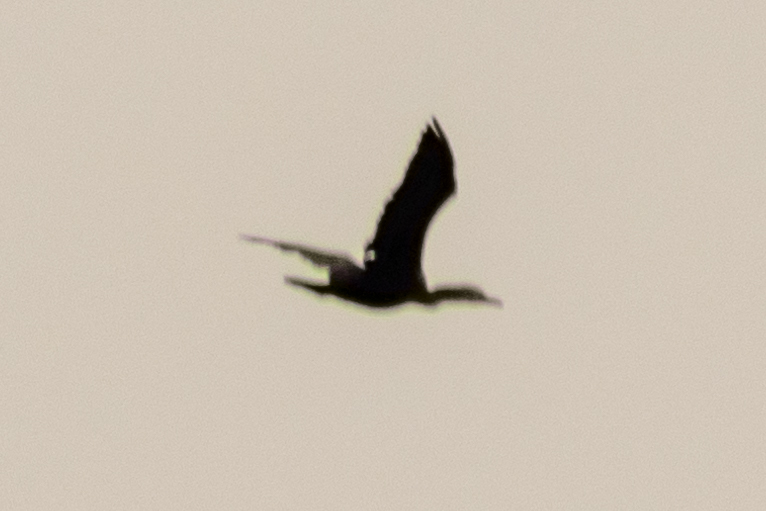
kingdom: Animalia
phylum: Chordata
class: Aves
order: Suliformes
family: Phalacrocoracidae
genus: Phalacrocorax
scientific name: Phalacrocorax auritus
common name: Double-crested cormorant
